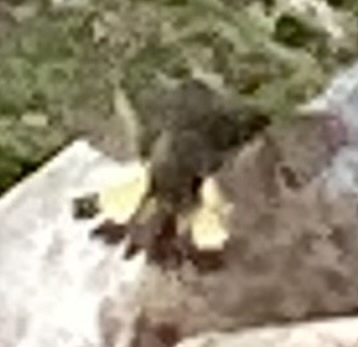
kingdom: Animalia
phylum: Chordata
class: Aves
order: Passeriformes
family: Parulidae
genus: Setophaga
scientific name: Setophaga ruticilla
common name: American redstart
